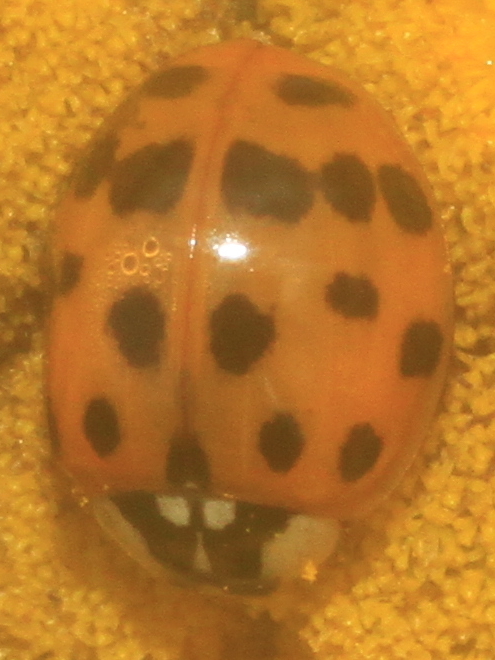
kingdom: Animalia
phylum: Arthropoda
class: Insecta
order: Coleoptera
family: Coccinellidae
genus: Harmonia
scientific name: Harmonia axyridis
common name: Harlequin ladybird
